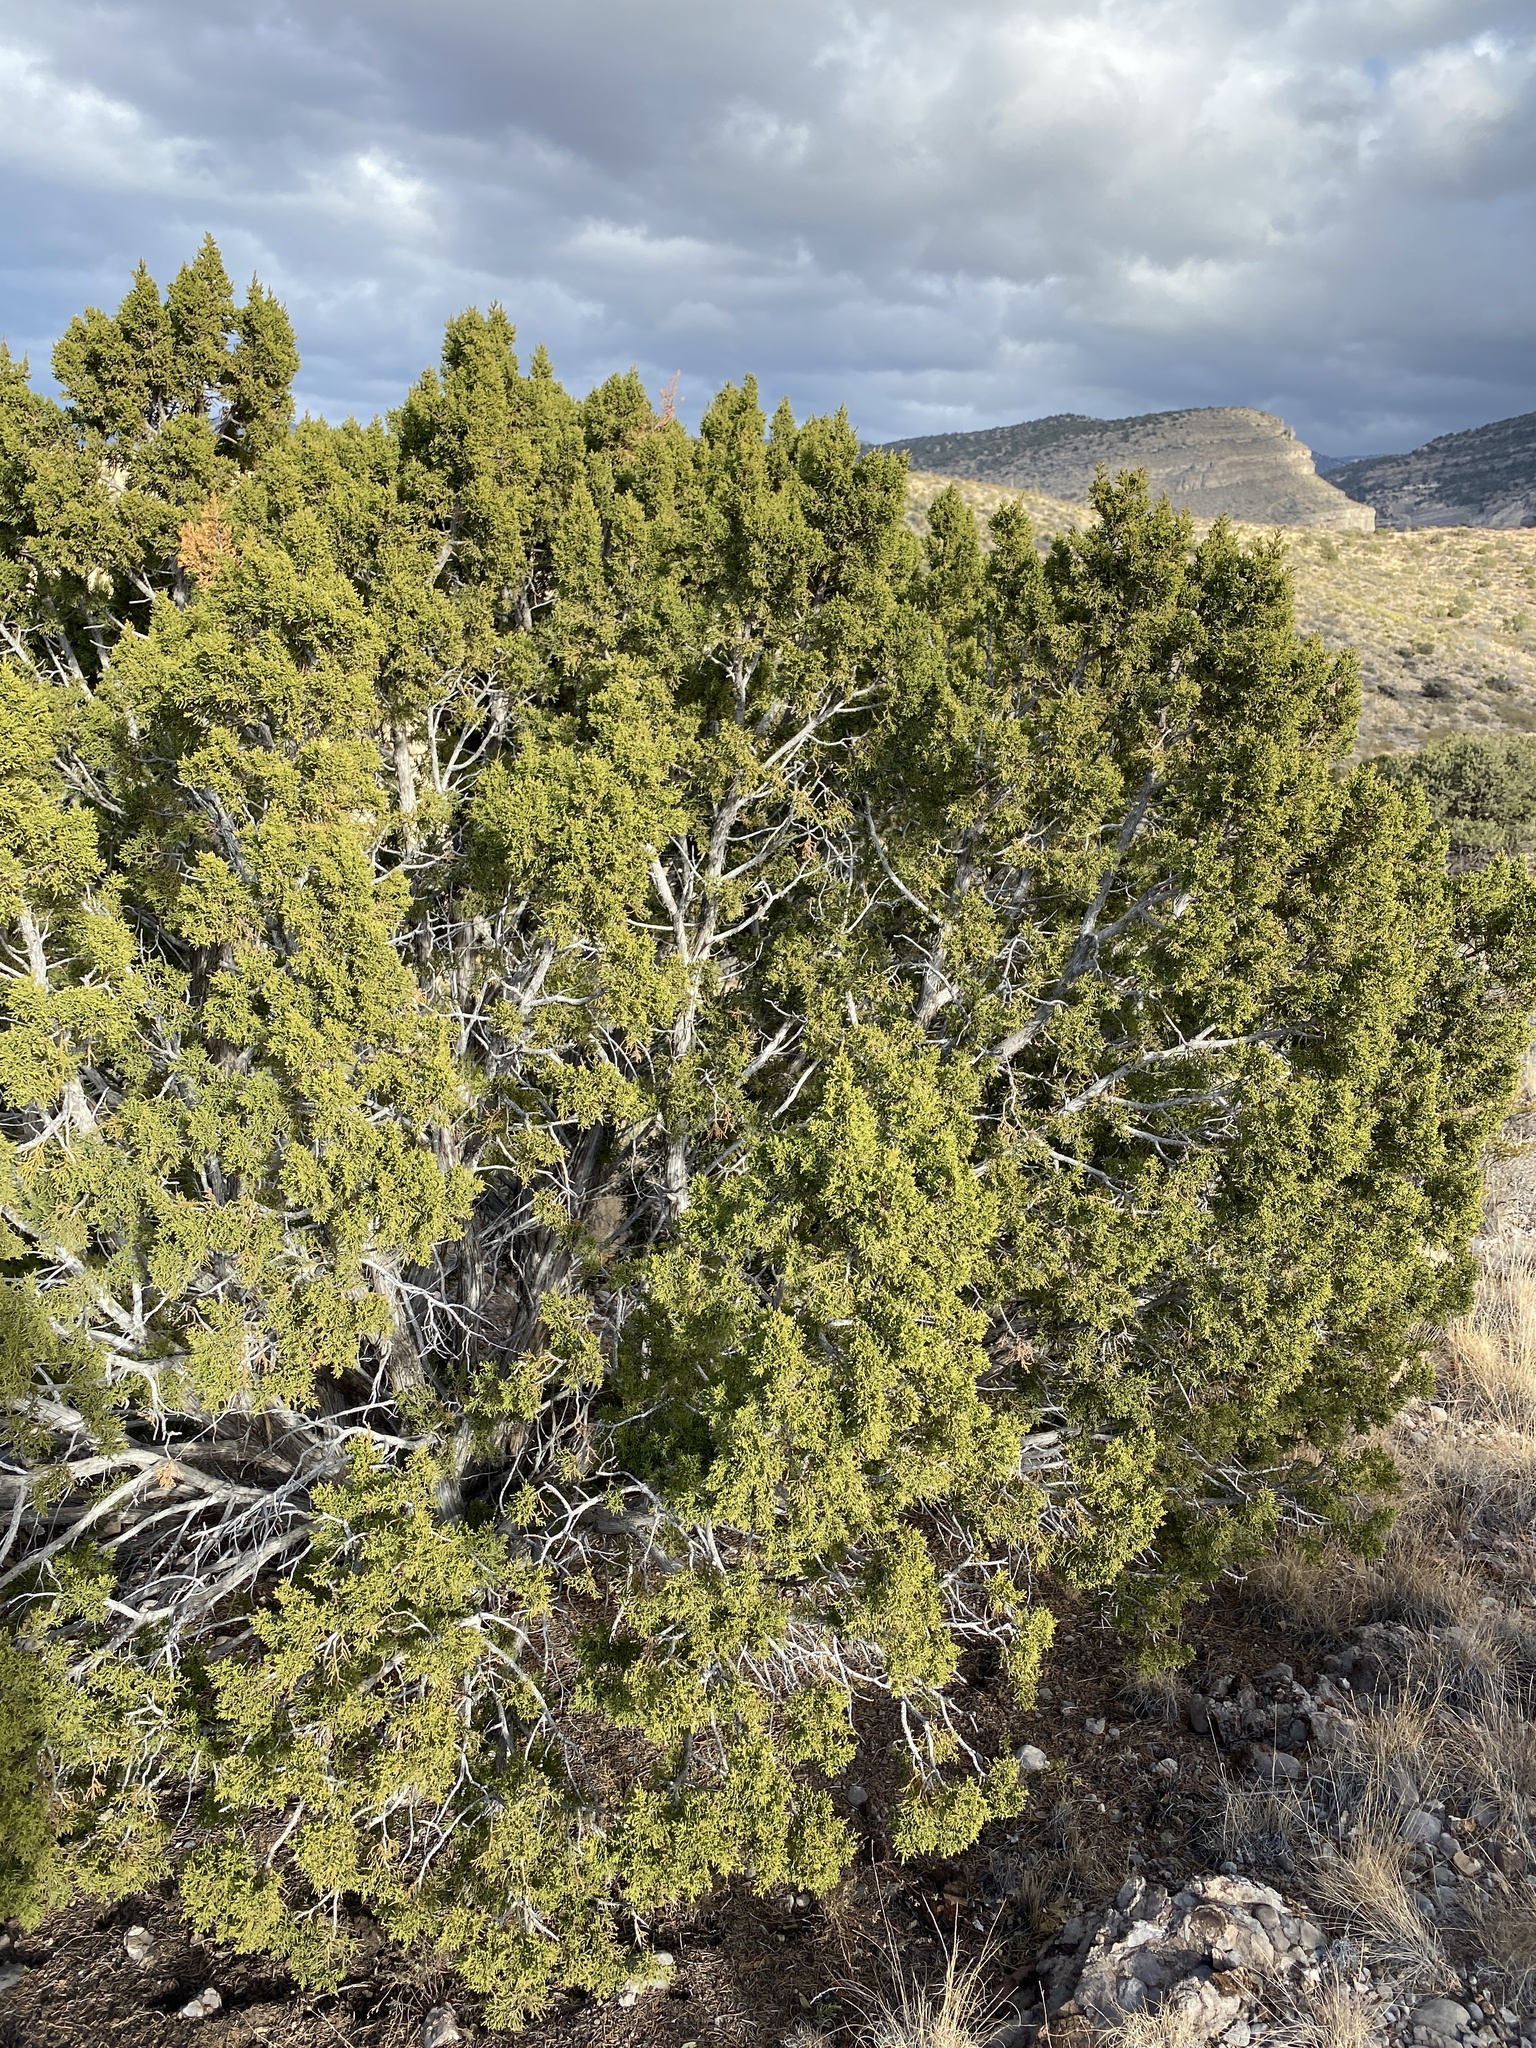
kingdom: Plantae
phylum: Tracheophyta
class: Pinopsida
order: Pinales
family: Cupressaceae
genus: Juniperus
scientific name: Juniperus monosperma
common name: One-seed juniper
